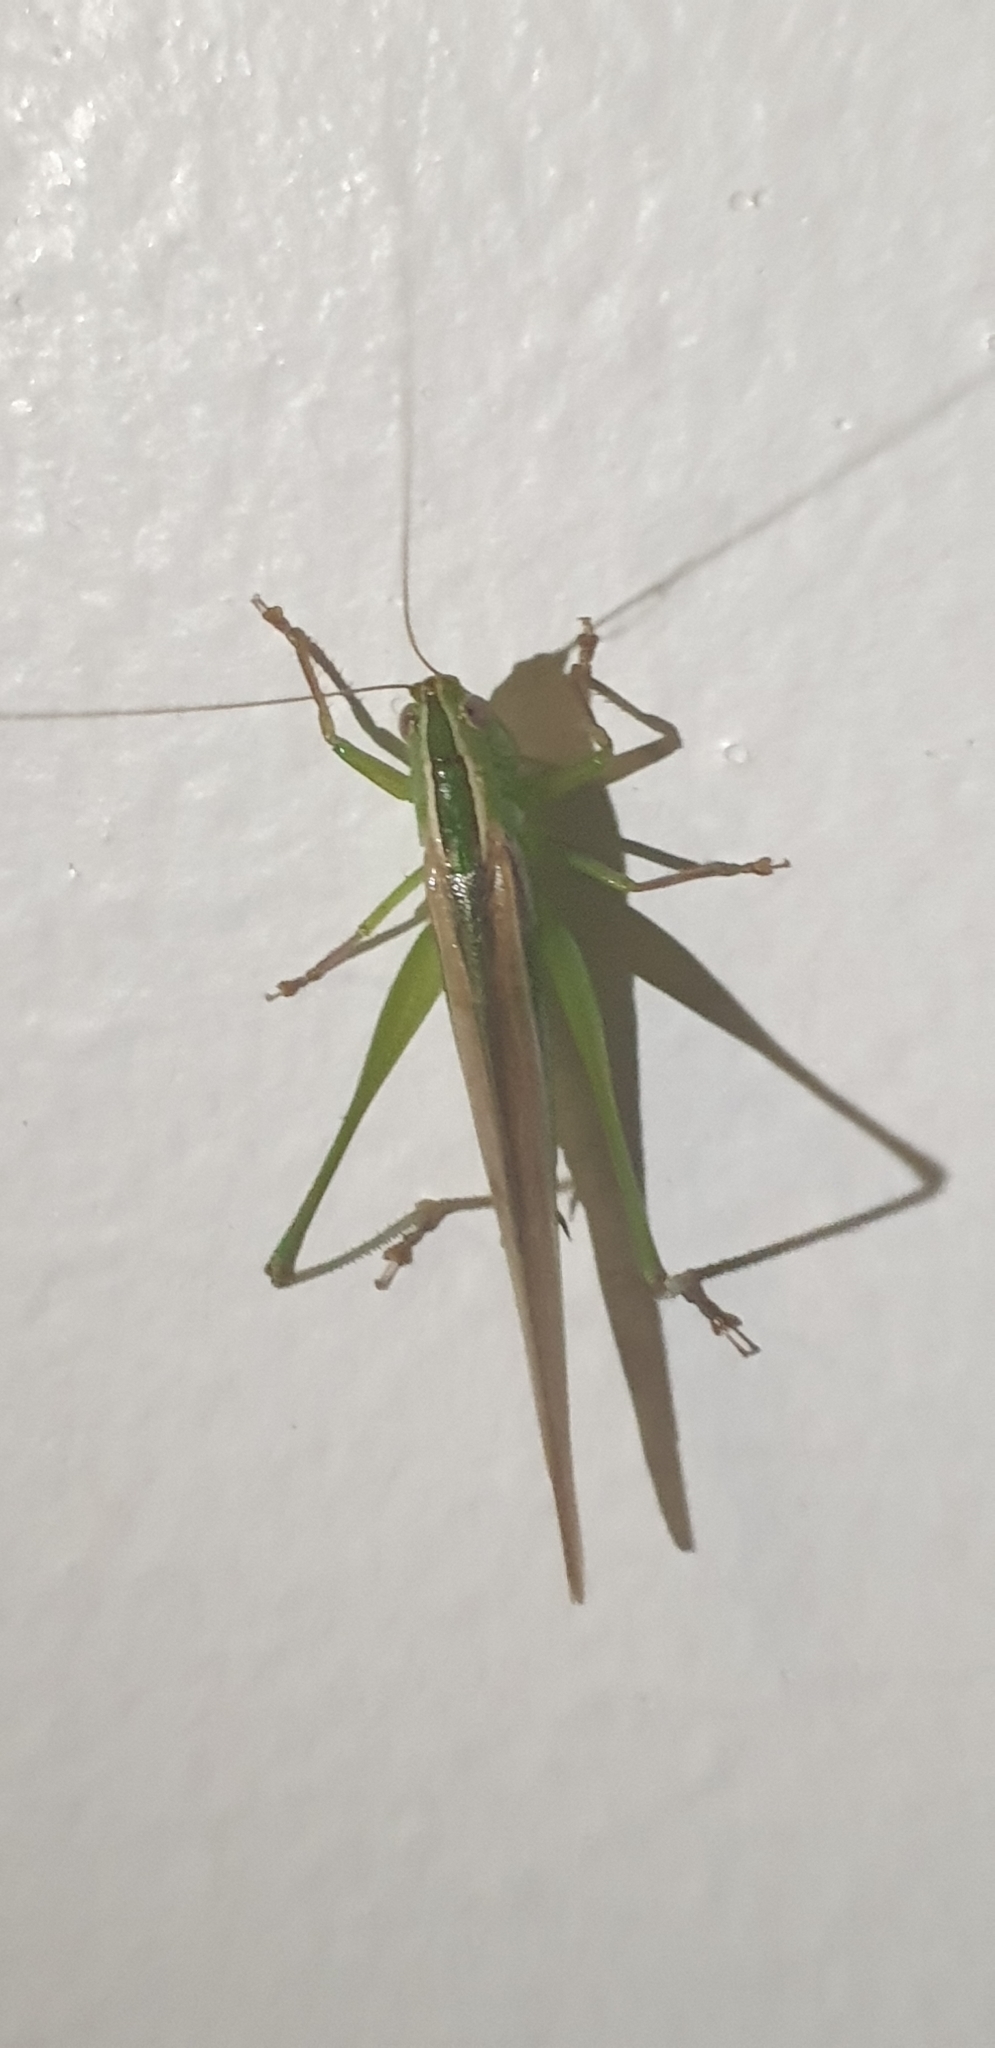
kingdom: Animalia
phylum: Arthropoda
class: Insecta
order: Orthoptera
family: Tettigoniidae
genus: Conocephalus
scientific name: Conocephalus upoluensis
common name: Upolu meadow katydid
